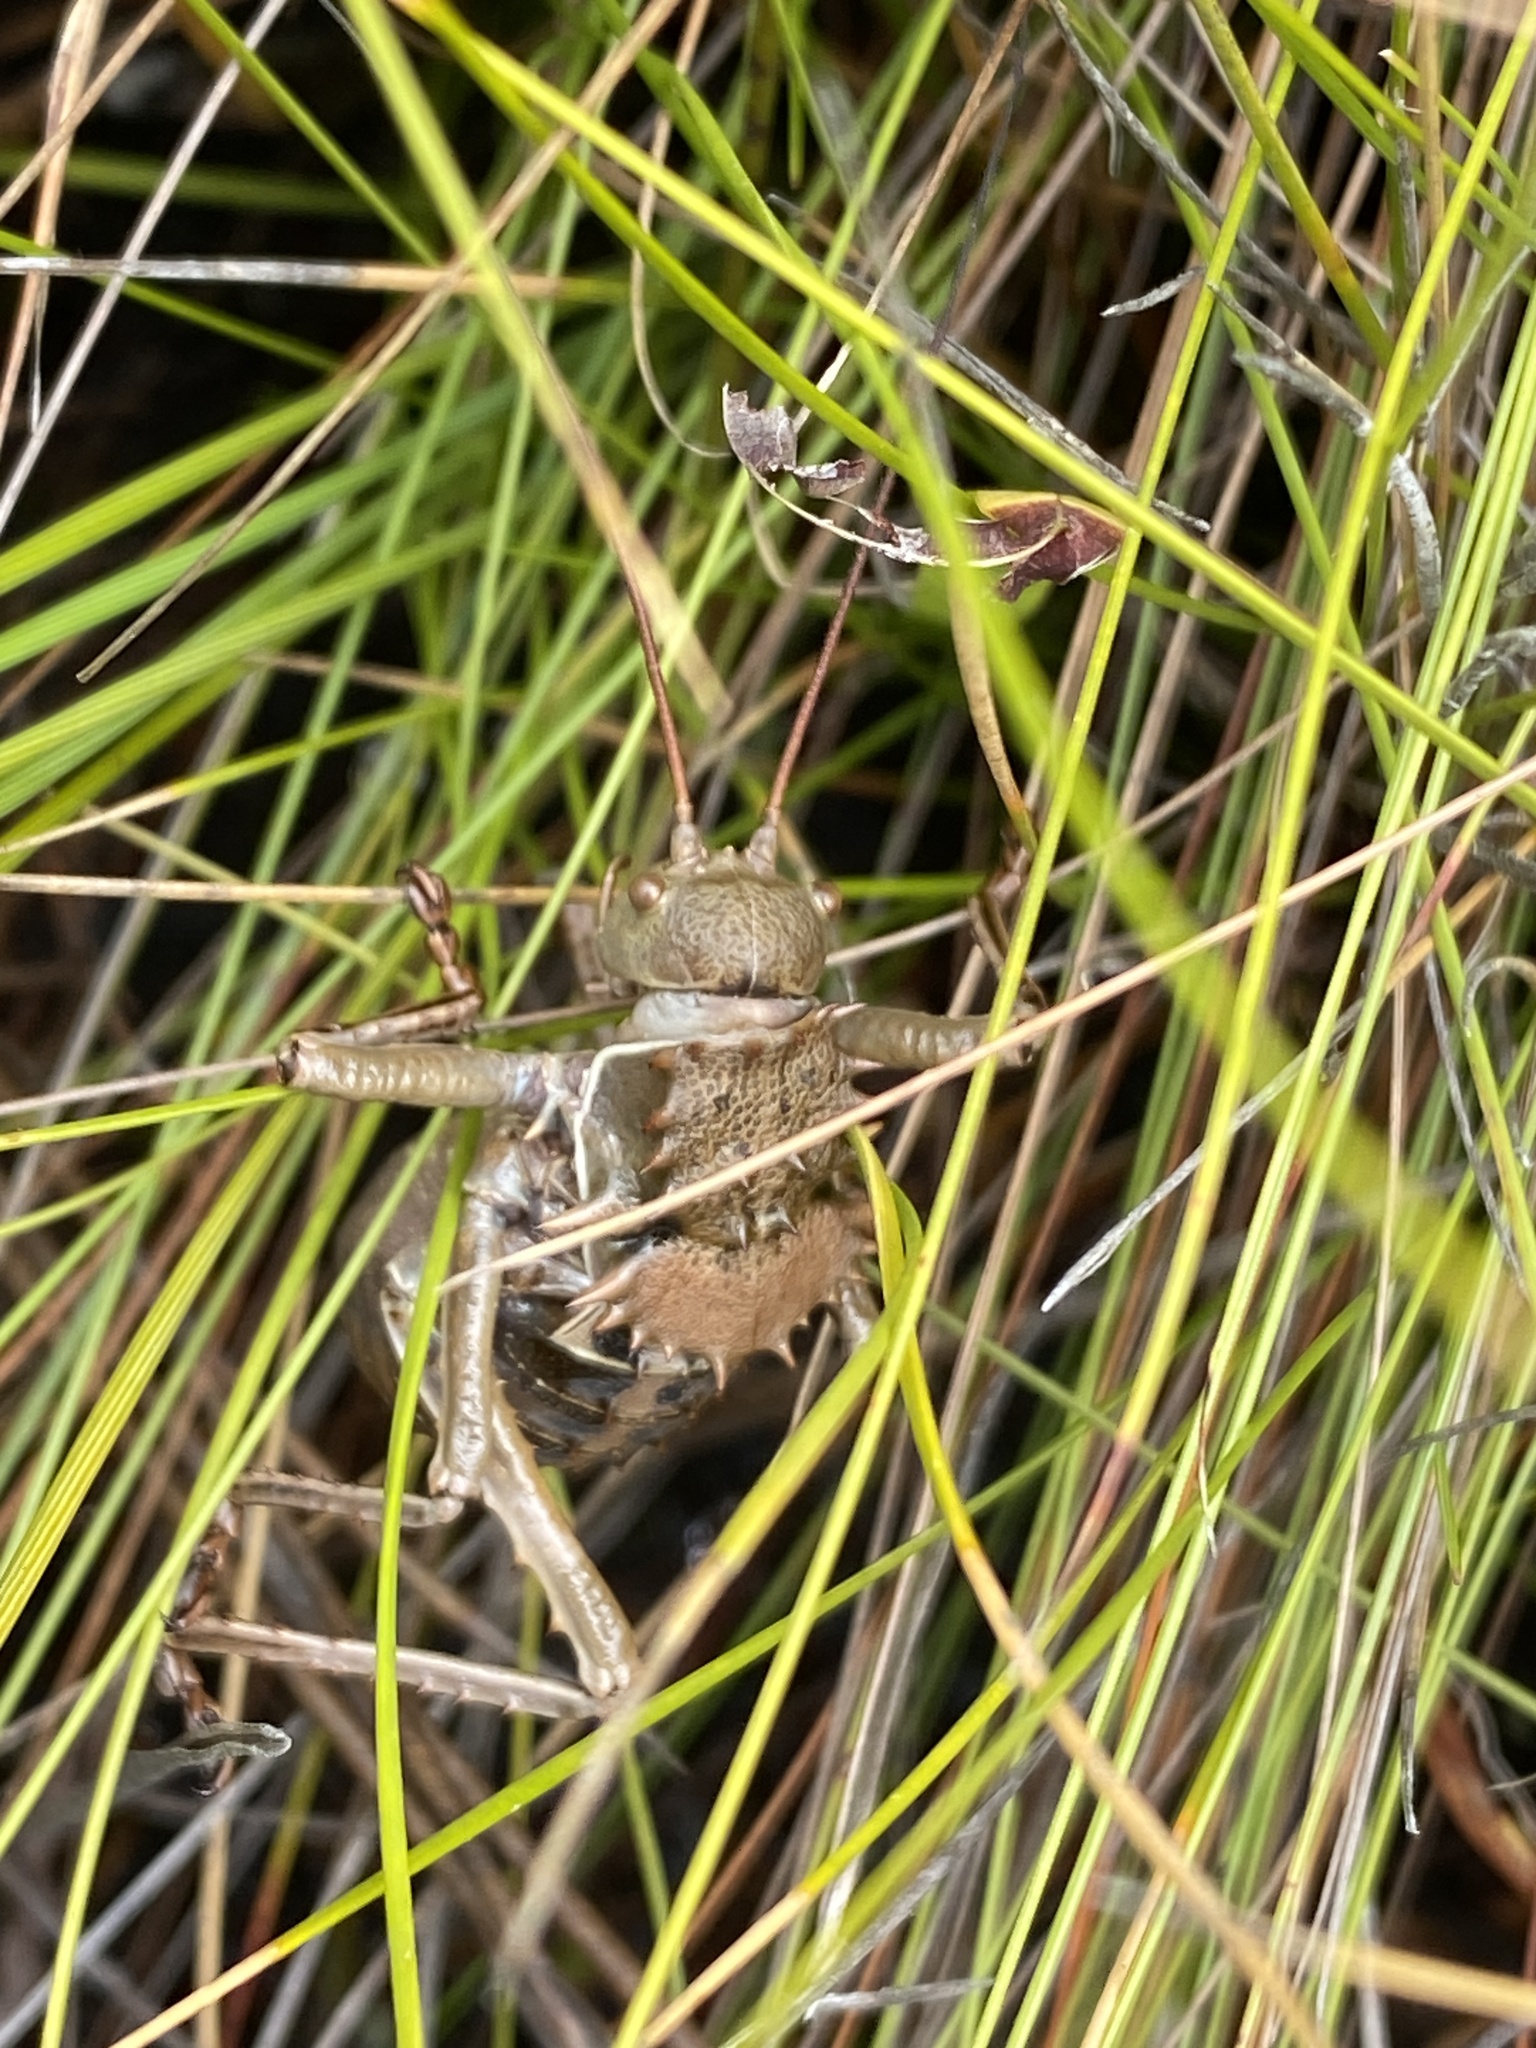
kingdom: Animalia
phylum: Arthropoda
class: Insecta
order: Orthoptera
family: Tettigoniidae
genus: Hetrodes
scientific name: Hetrodes pupus
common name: Koringkriek
